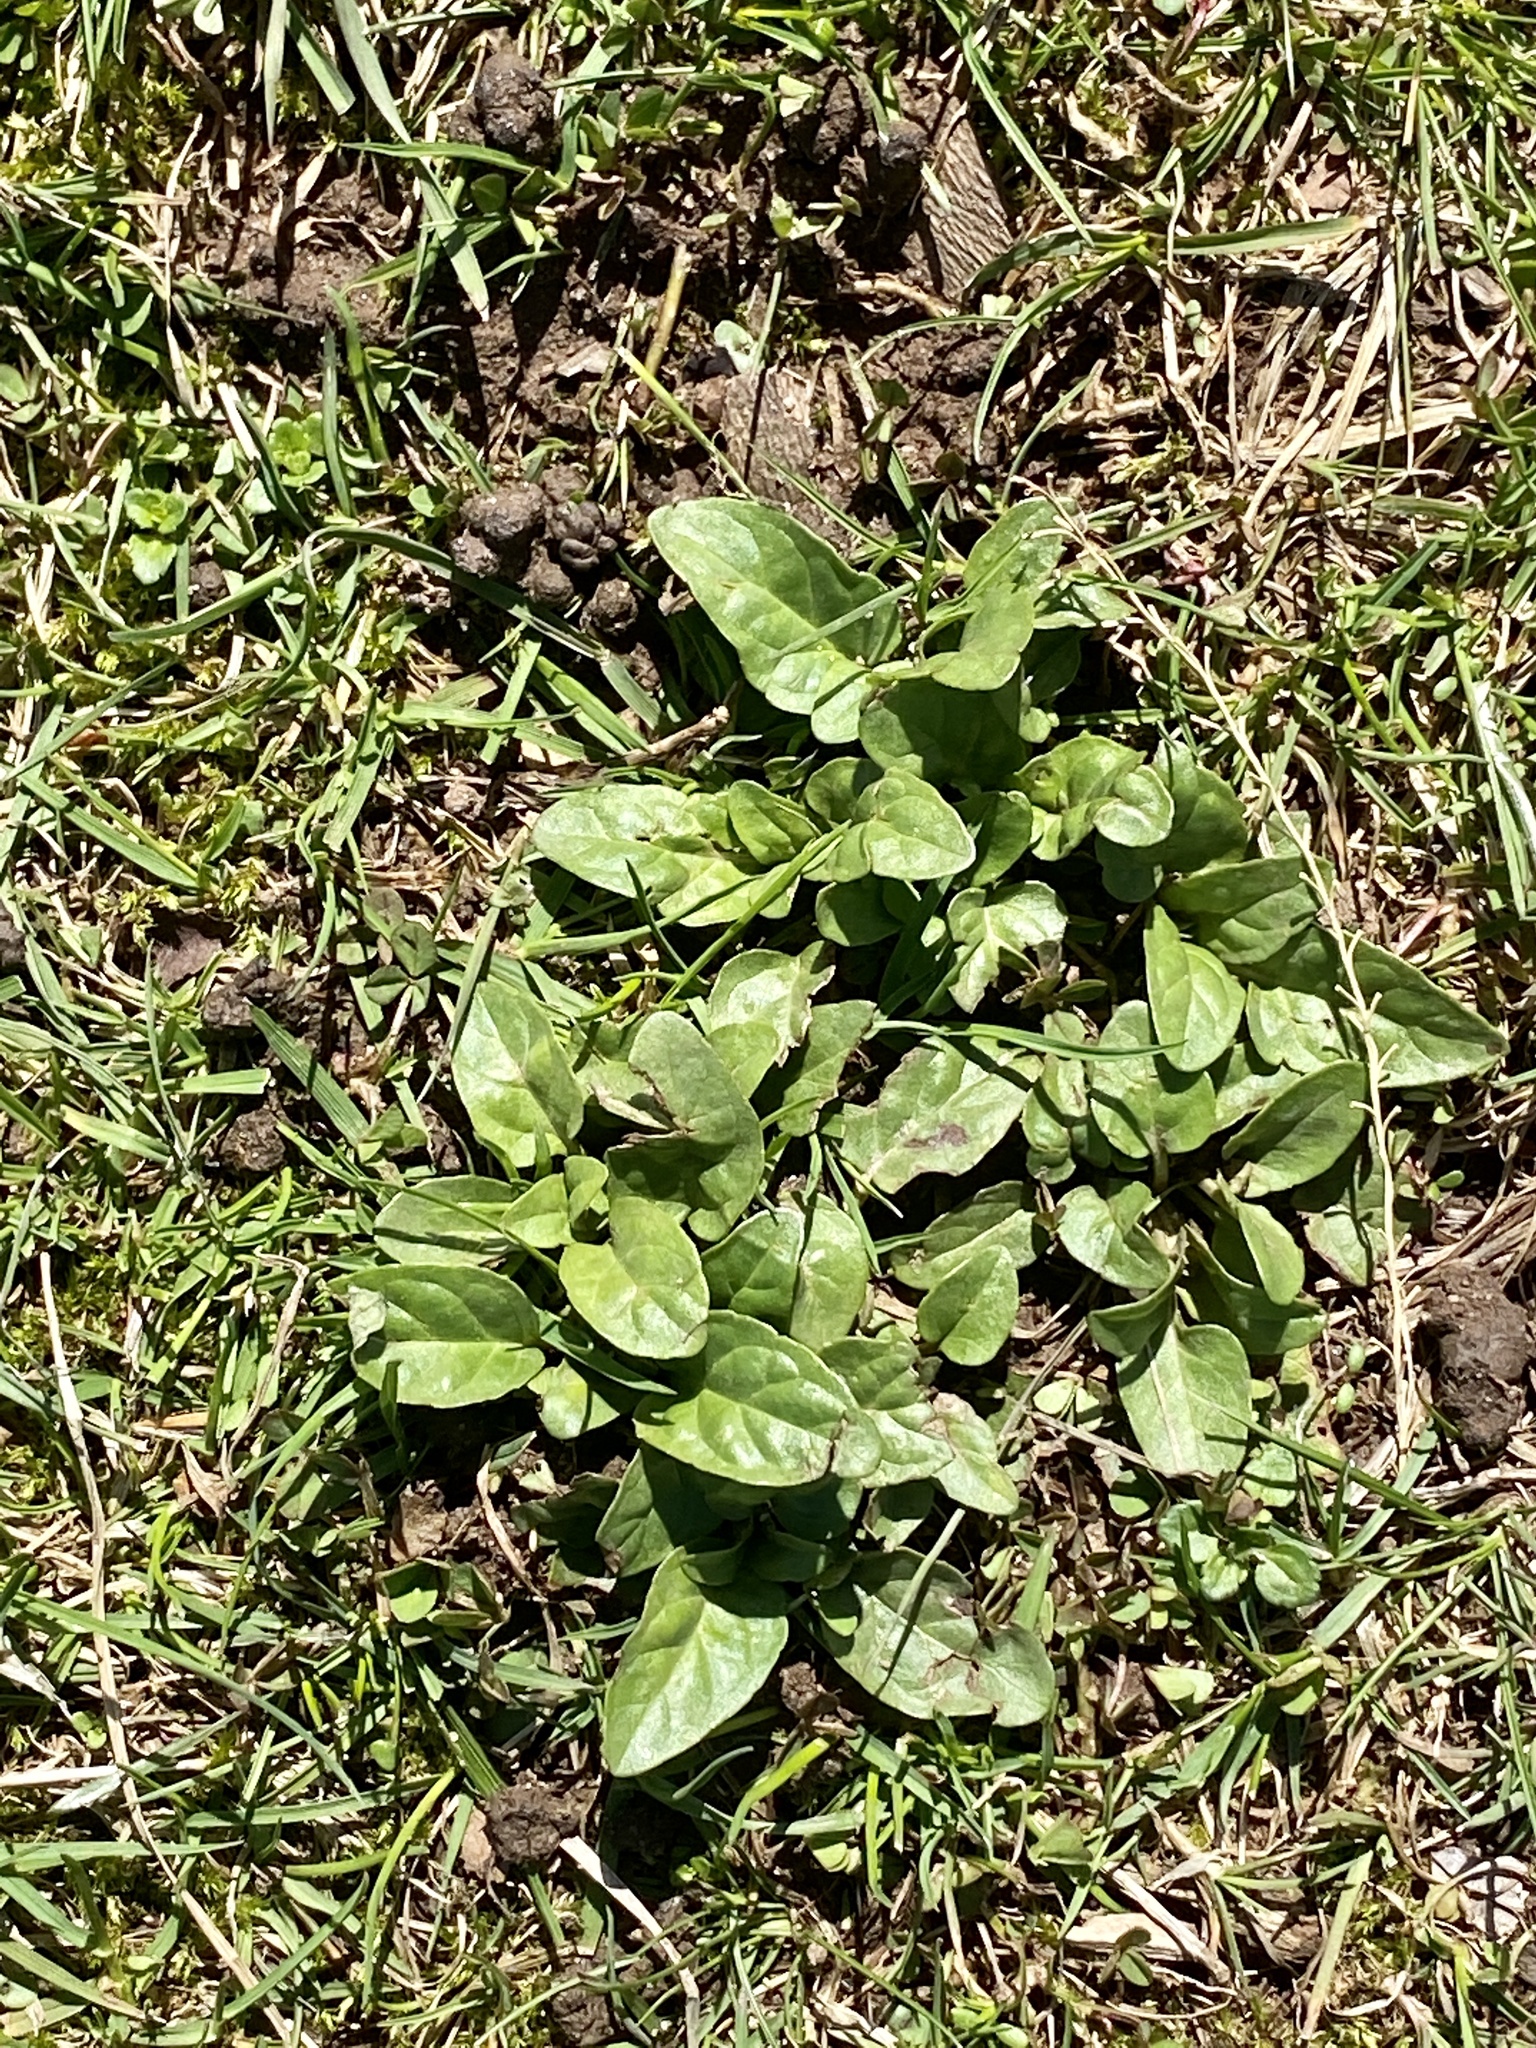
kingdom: Plantae
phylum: Tracheophyta
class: Magnoliopsida
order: Lamiales
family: Lamiaceae
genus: Prunella
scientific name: Prunella vulgaris
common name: Heal-all
